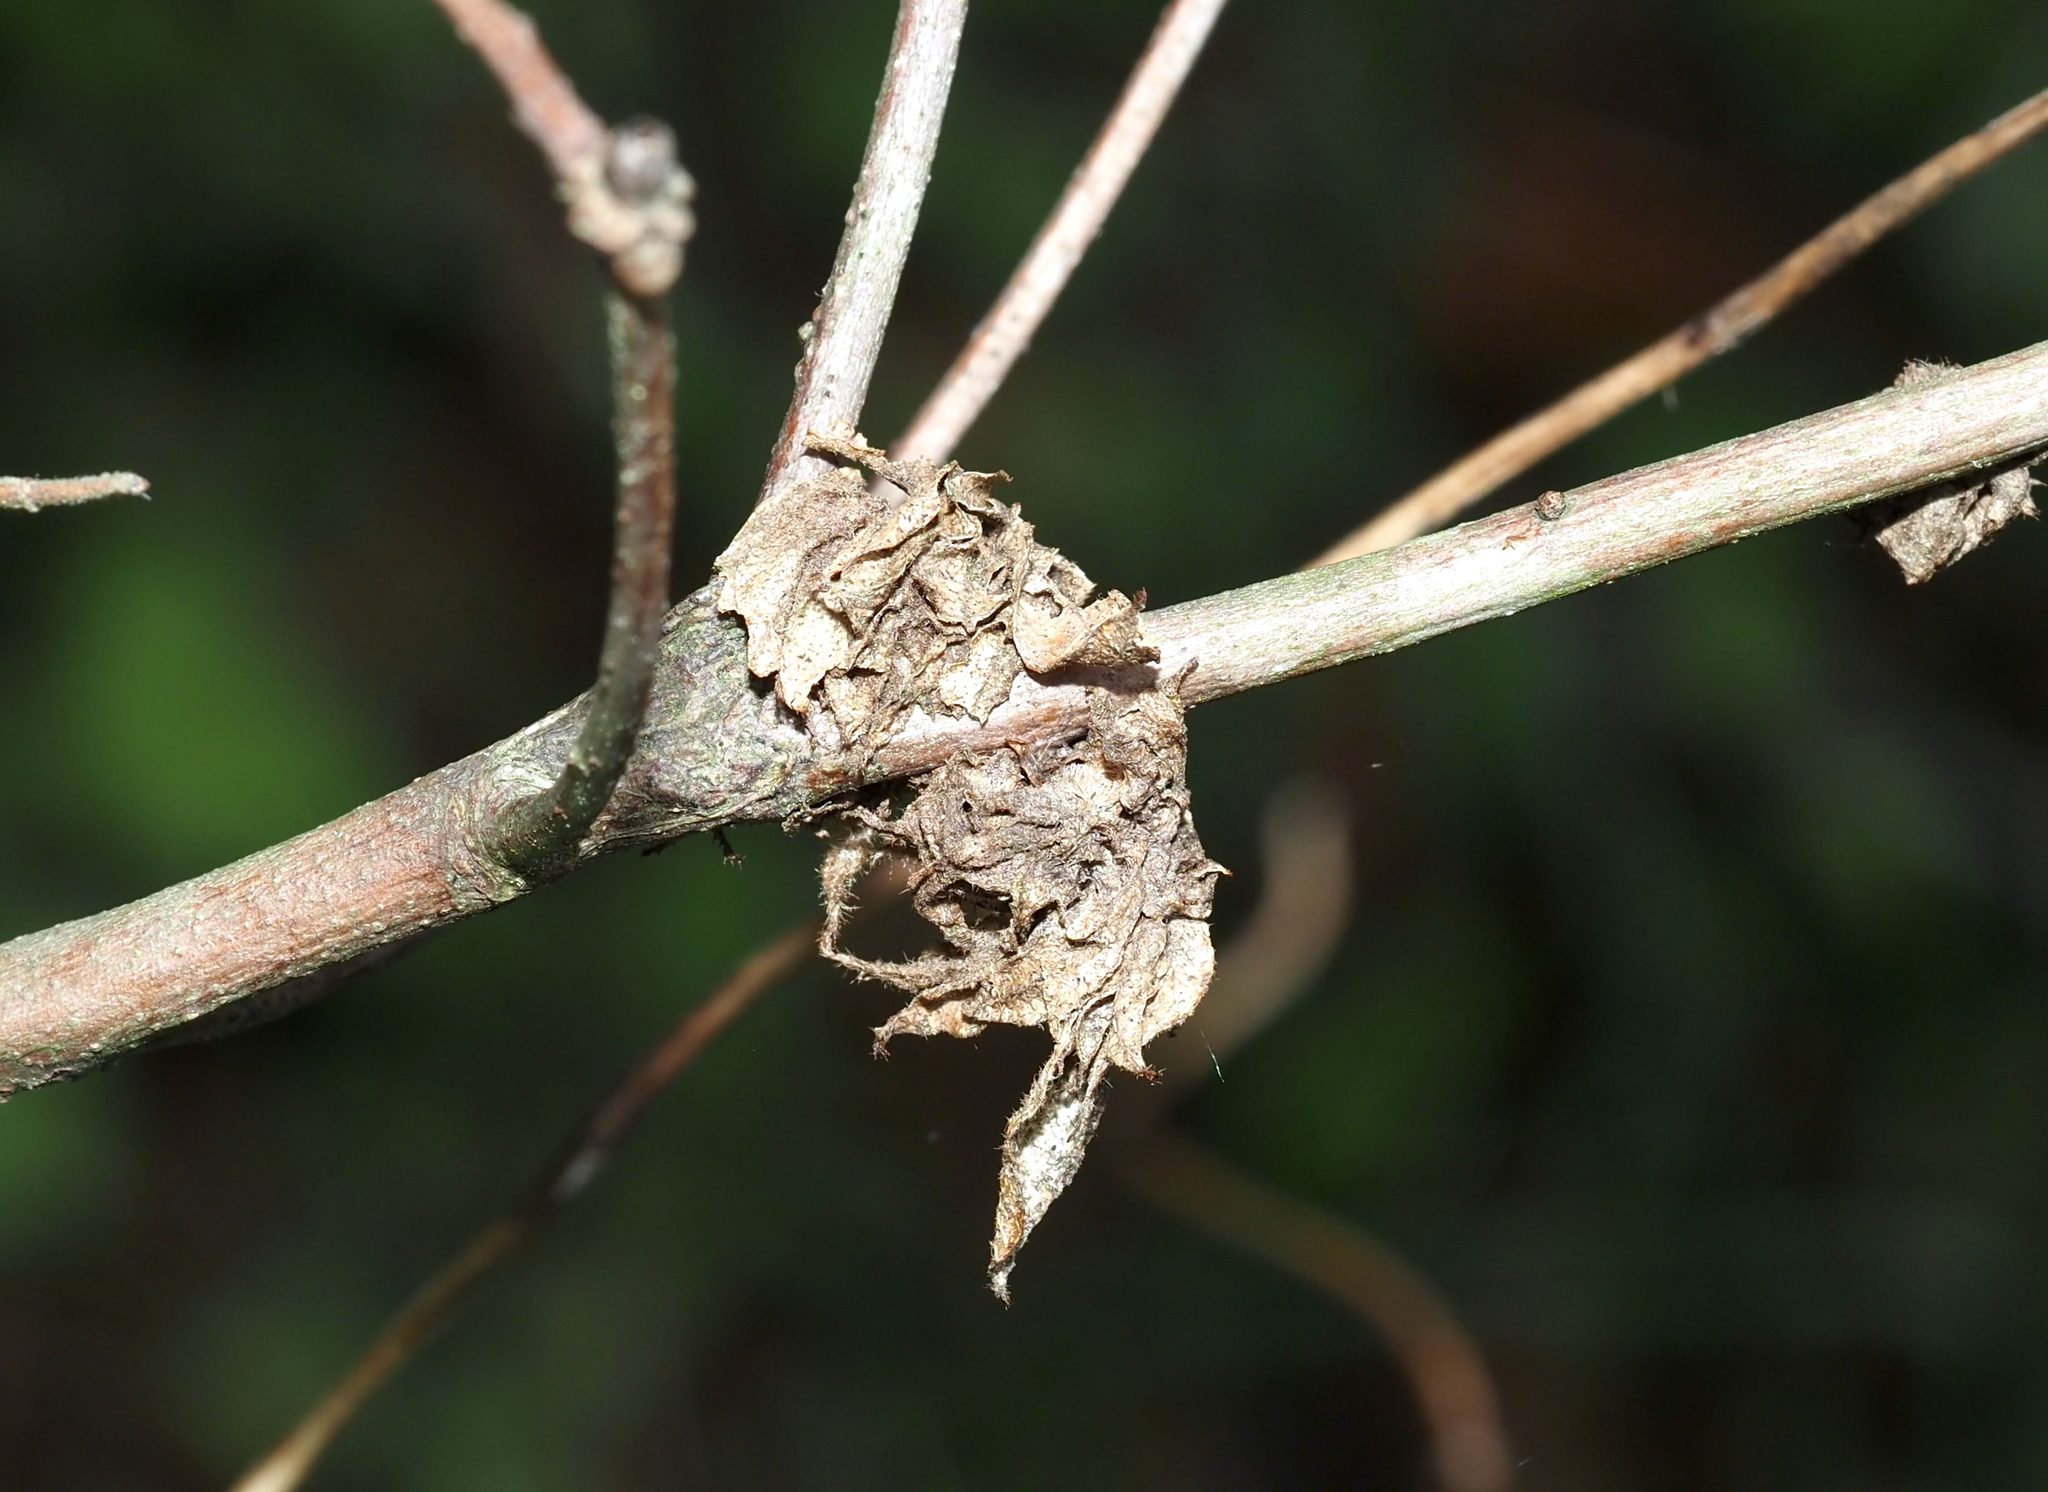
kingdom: Animalia
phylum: Arthropoda
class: Insecta
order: Hymenoptera
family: Cynipidae
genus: Dryocosmus
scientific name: Dryocosmus
